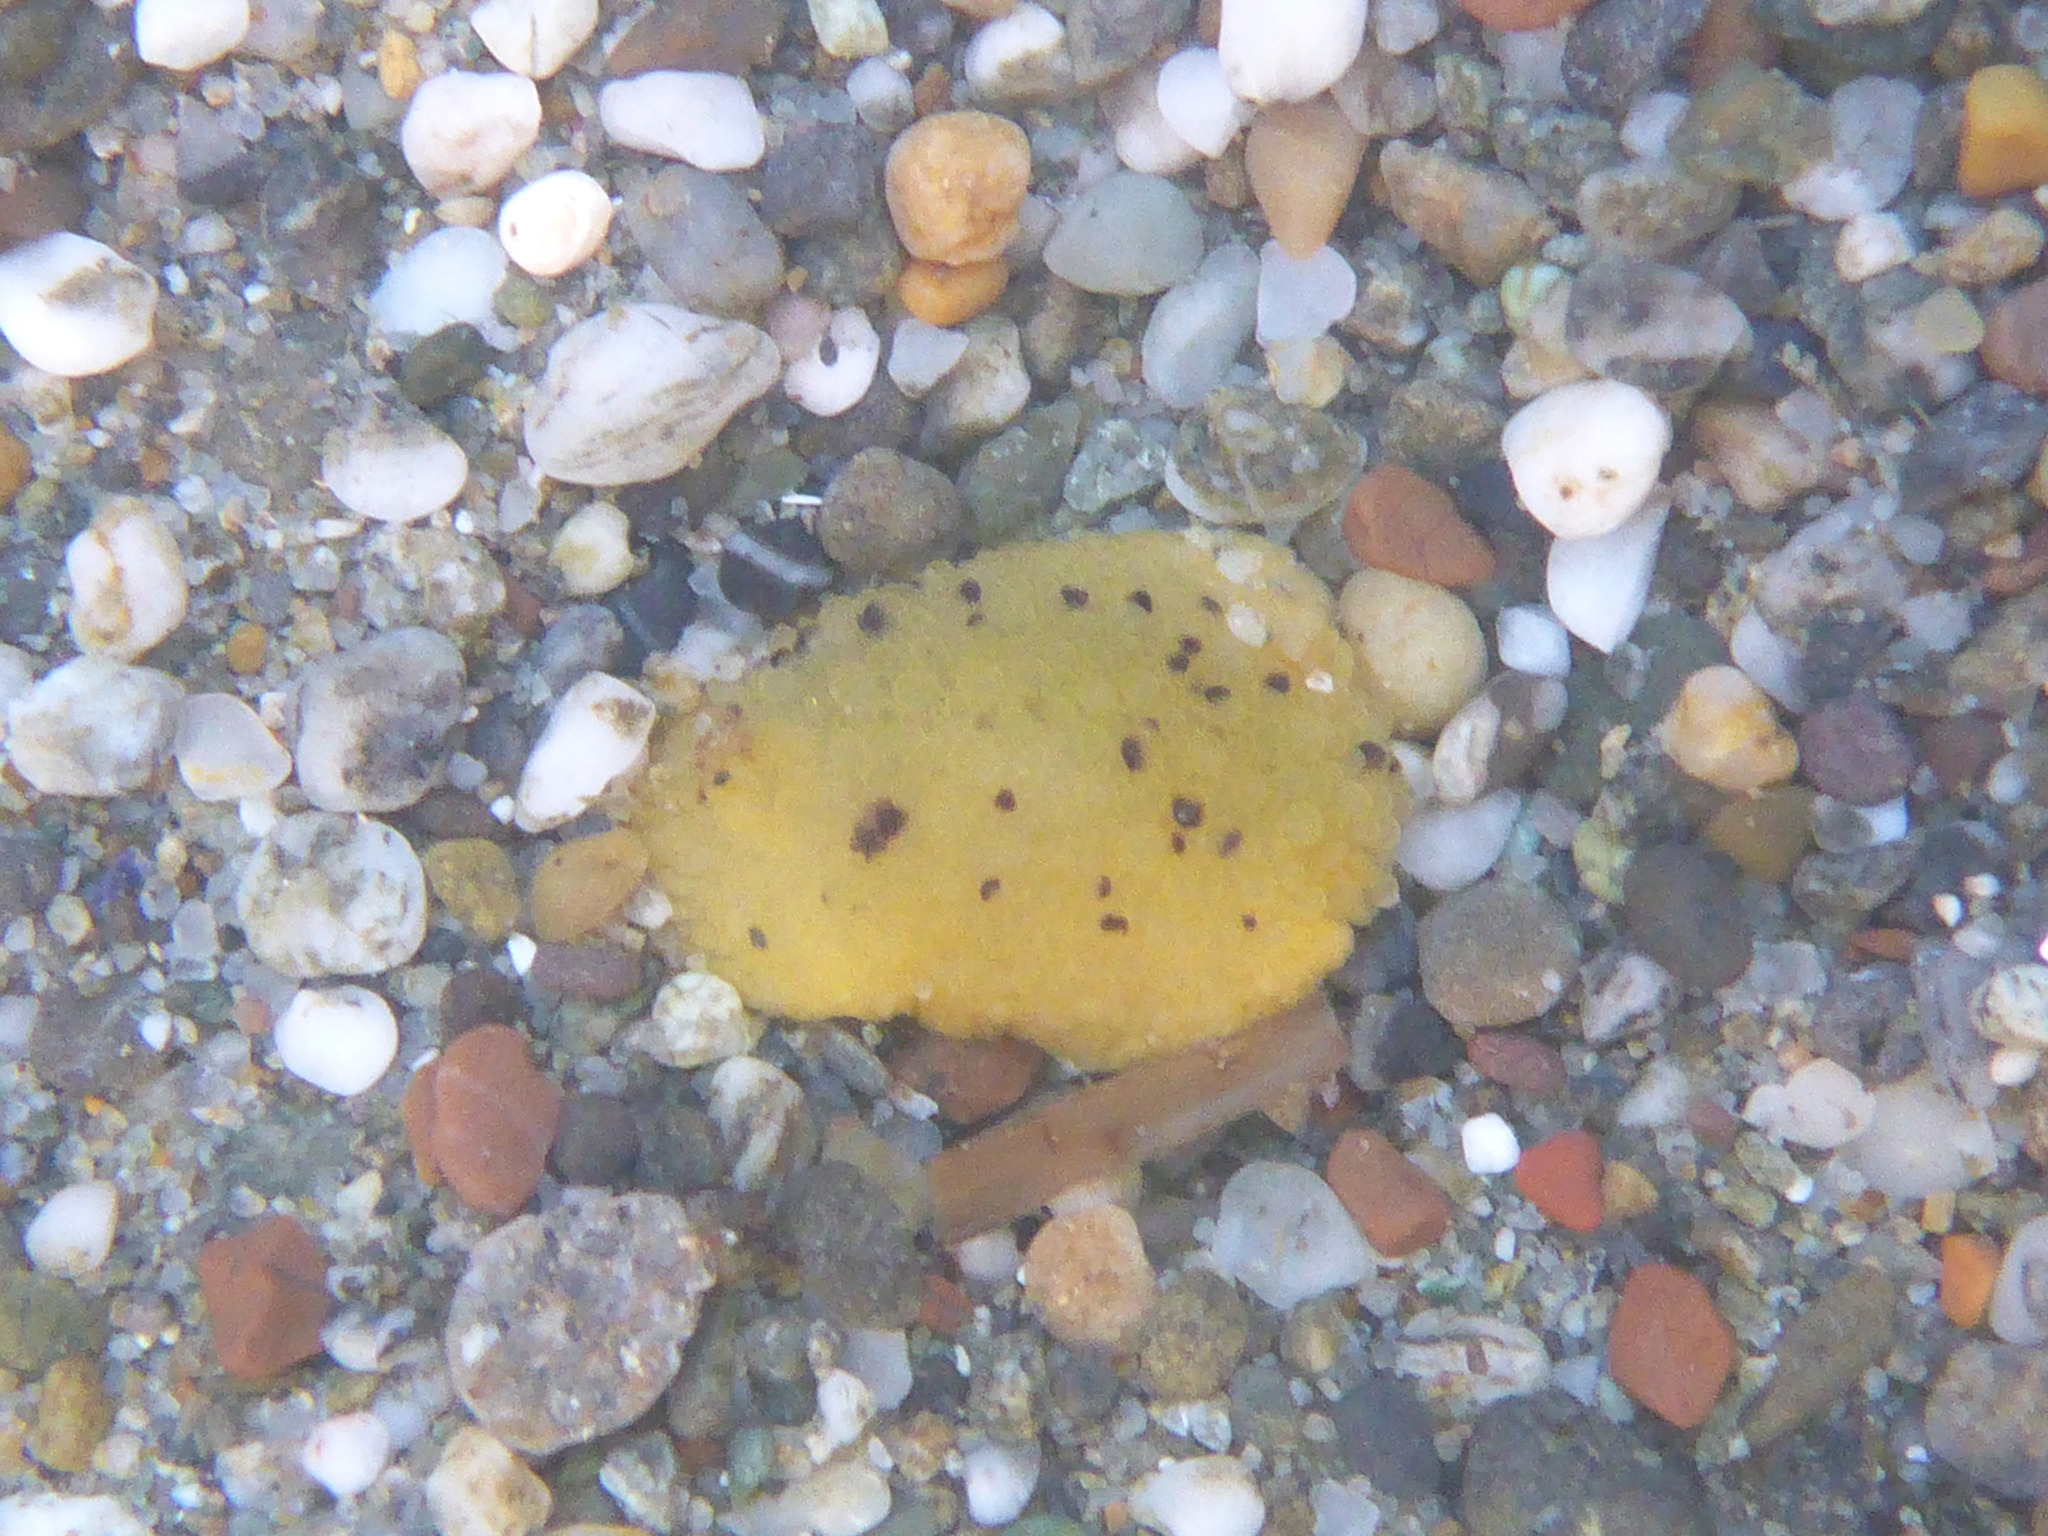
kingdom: Animalia
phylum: Mollusca
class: Gastropoda
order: Nudibranchia
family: Dorididae
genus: Doris
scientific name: Doris montereyensis
